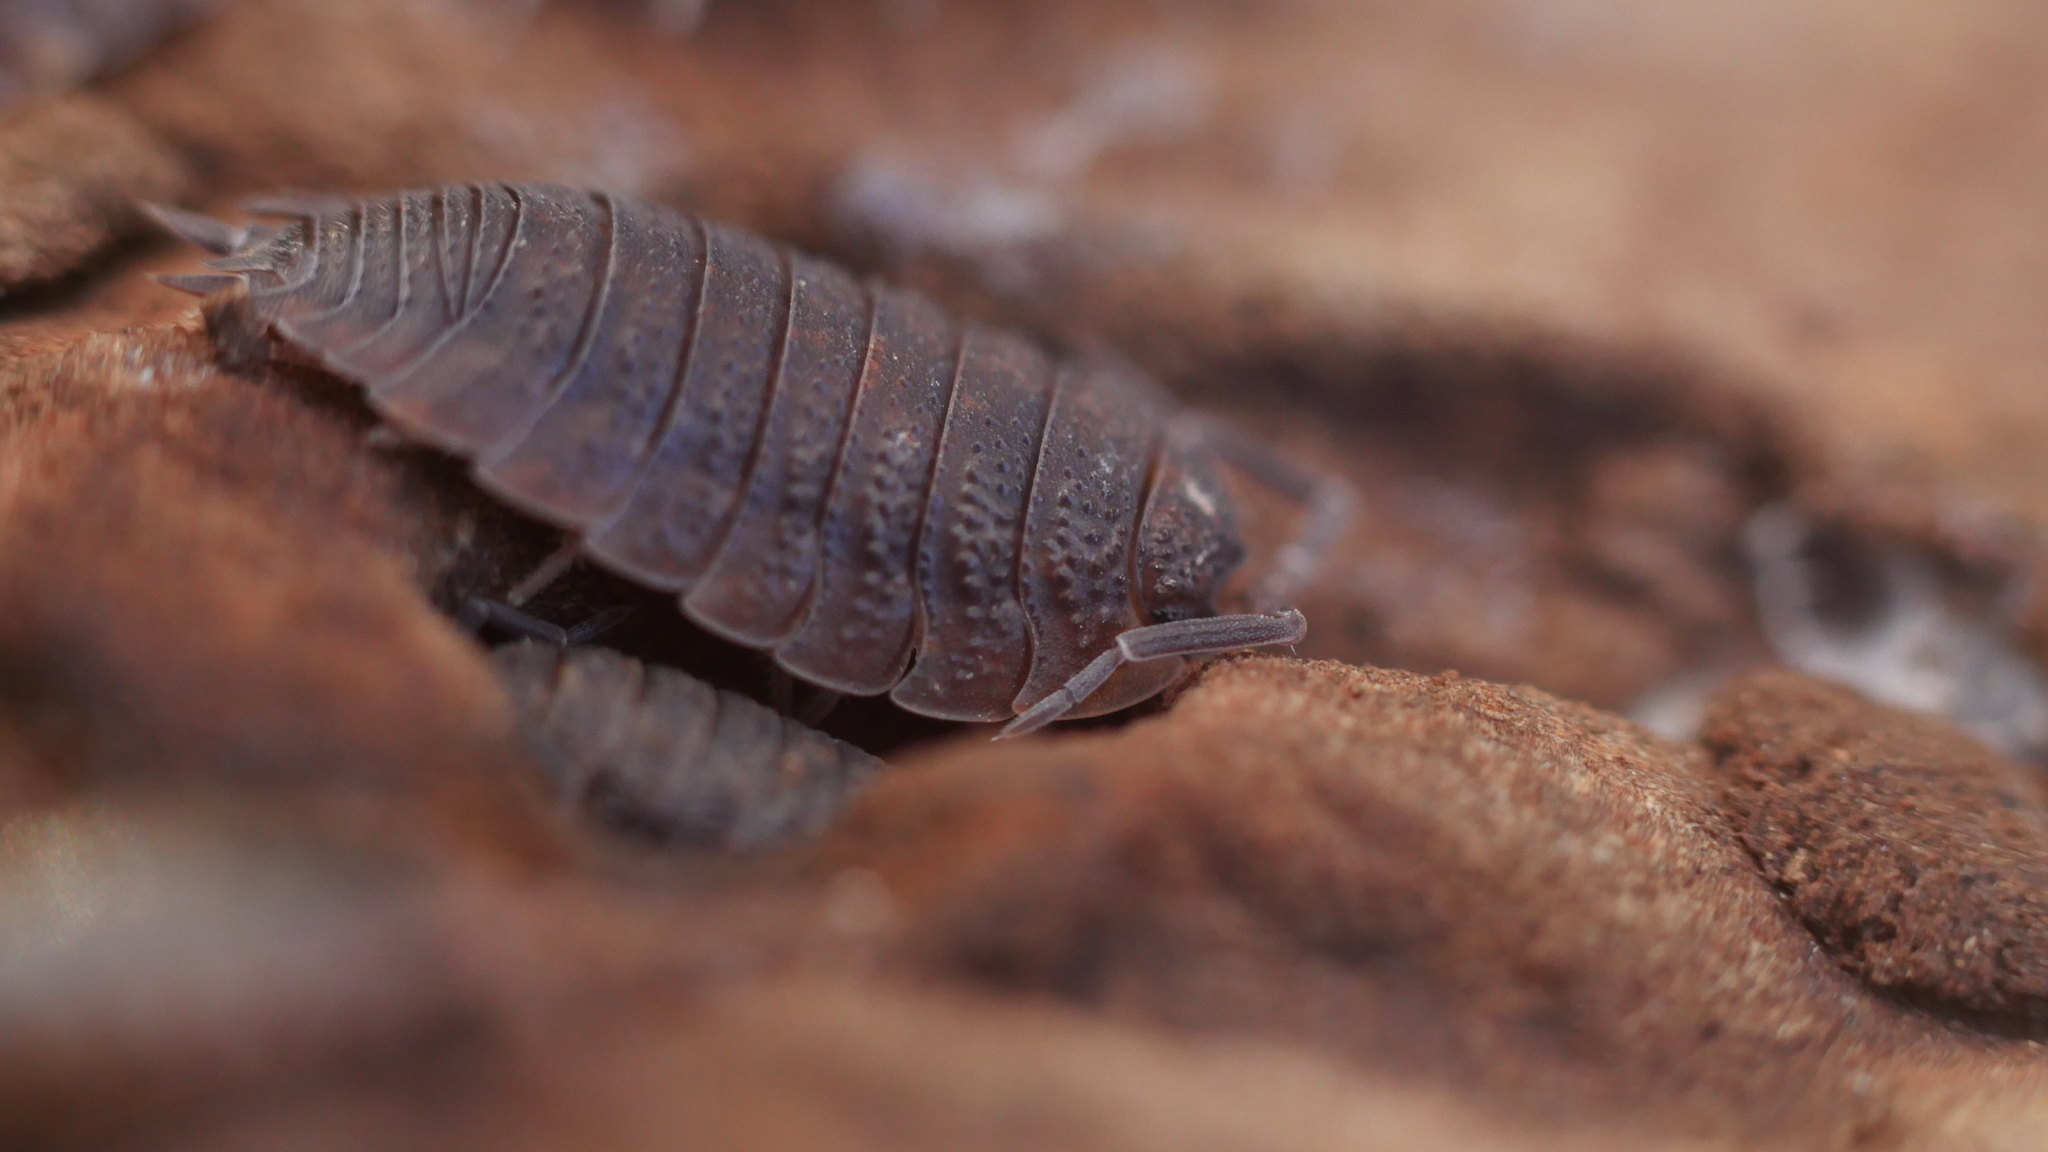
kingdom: Animalia
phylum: Arthropoda
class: Malacostraca
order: Isopoda
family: Porcellionidae
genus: Porcellio
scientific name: Porcellio scaber
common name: Common rough woodlouse
